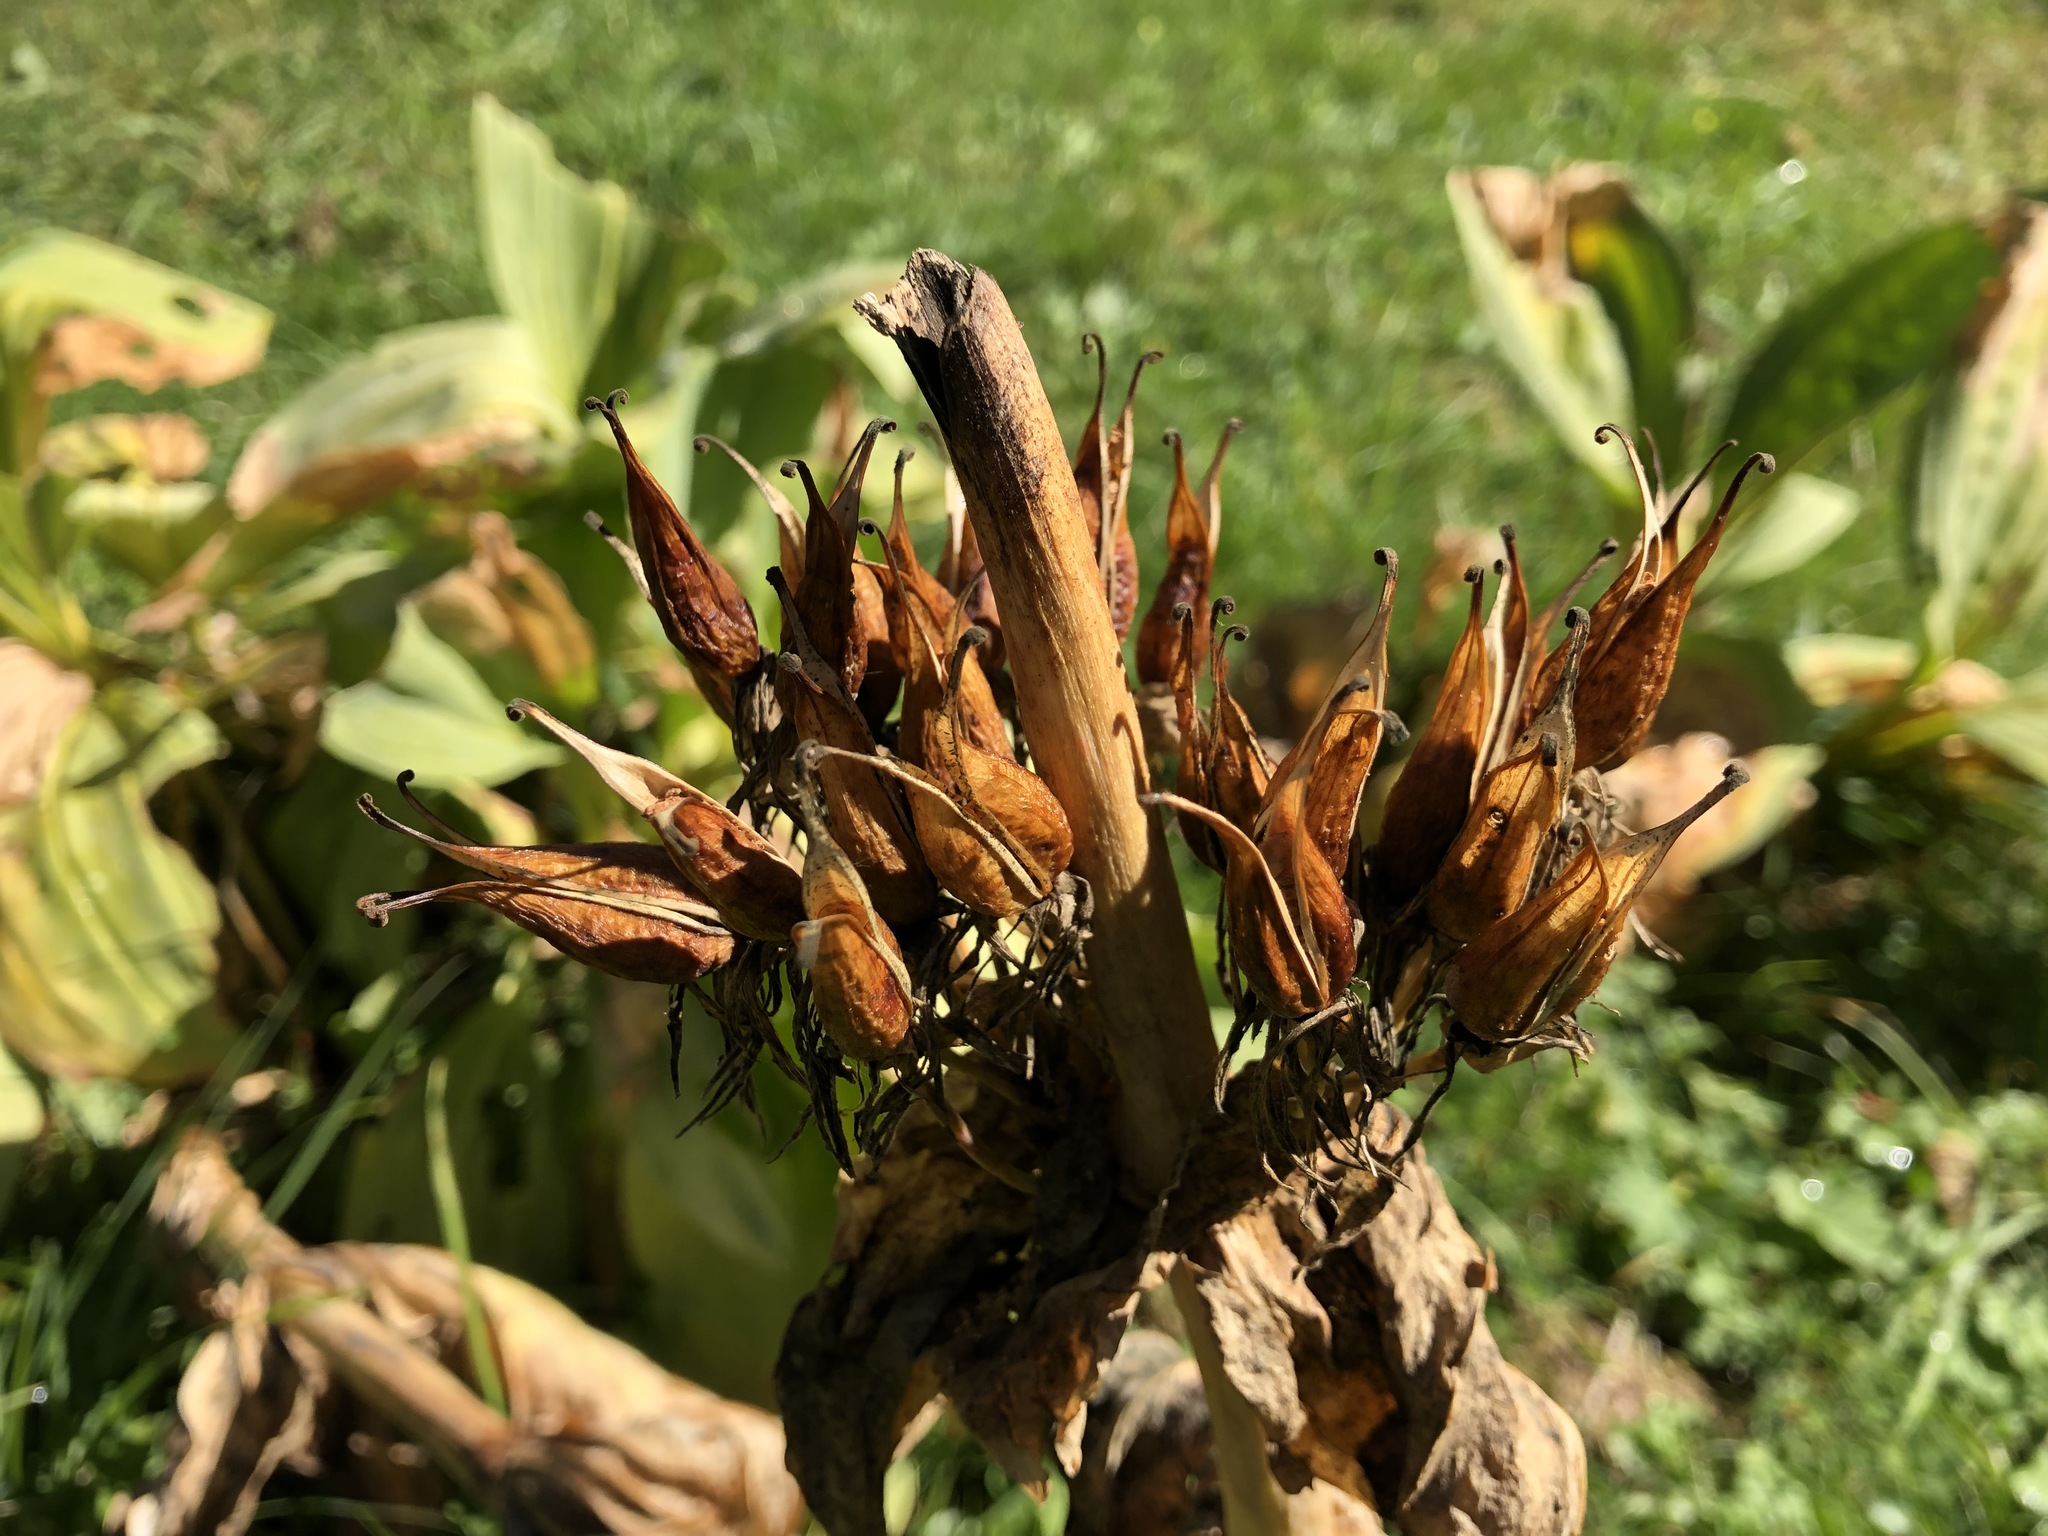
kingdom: Plantae
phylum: Tracheophyta
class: Magnoliopsida
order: Gentianales
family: Gentianaceae
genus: Gentiana
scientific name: Gentiana lutea
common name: Great yellow gentian
